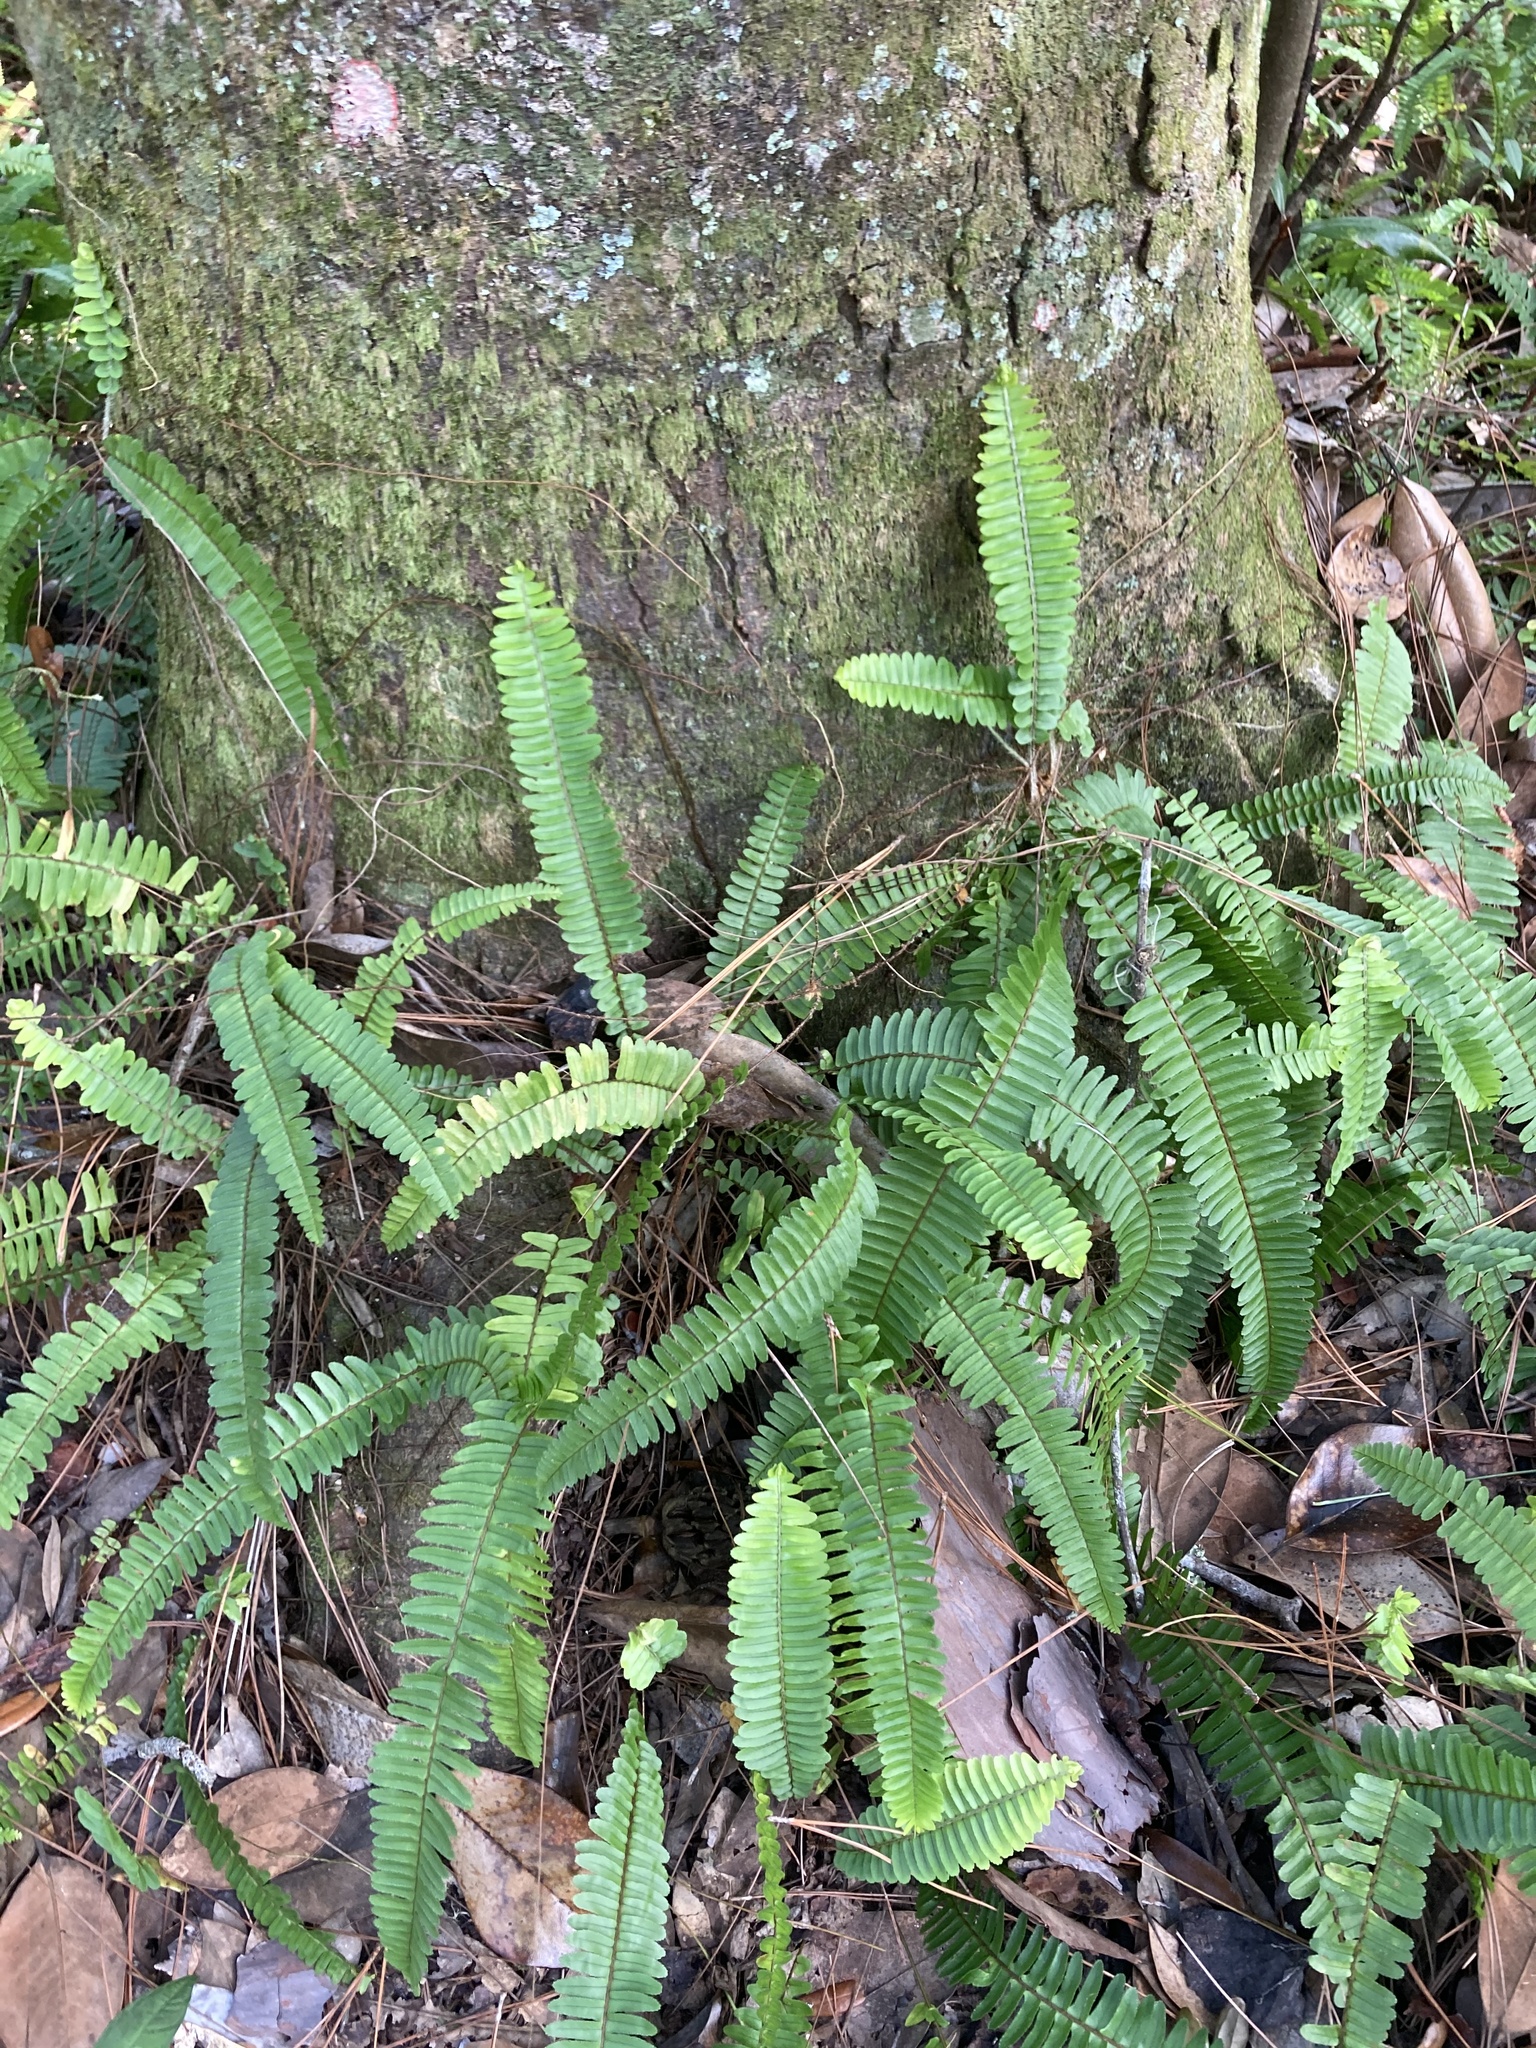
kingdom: Plantae
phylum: Tracheophyta
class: Polypodiopsida
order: Polypodiales
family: Nephrolepidaceae
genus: Nephrolepis
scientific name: Nephrolepis cordifolia
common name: Narrow swordfern
